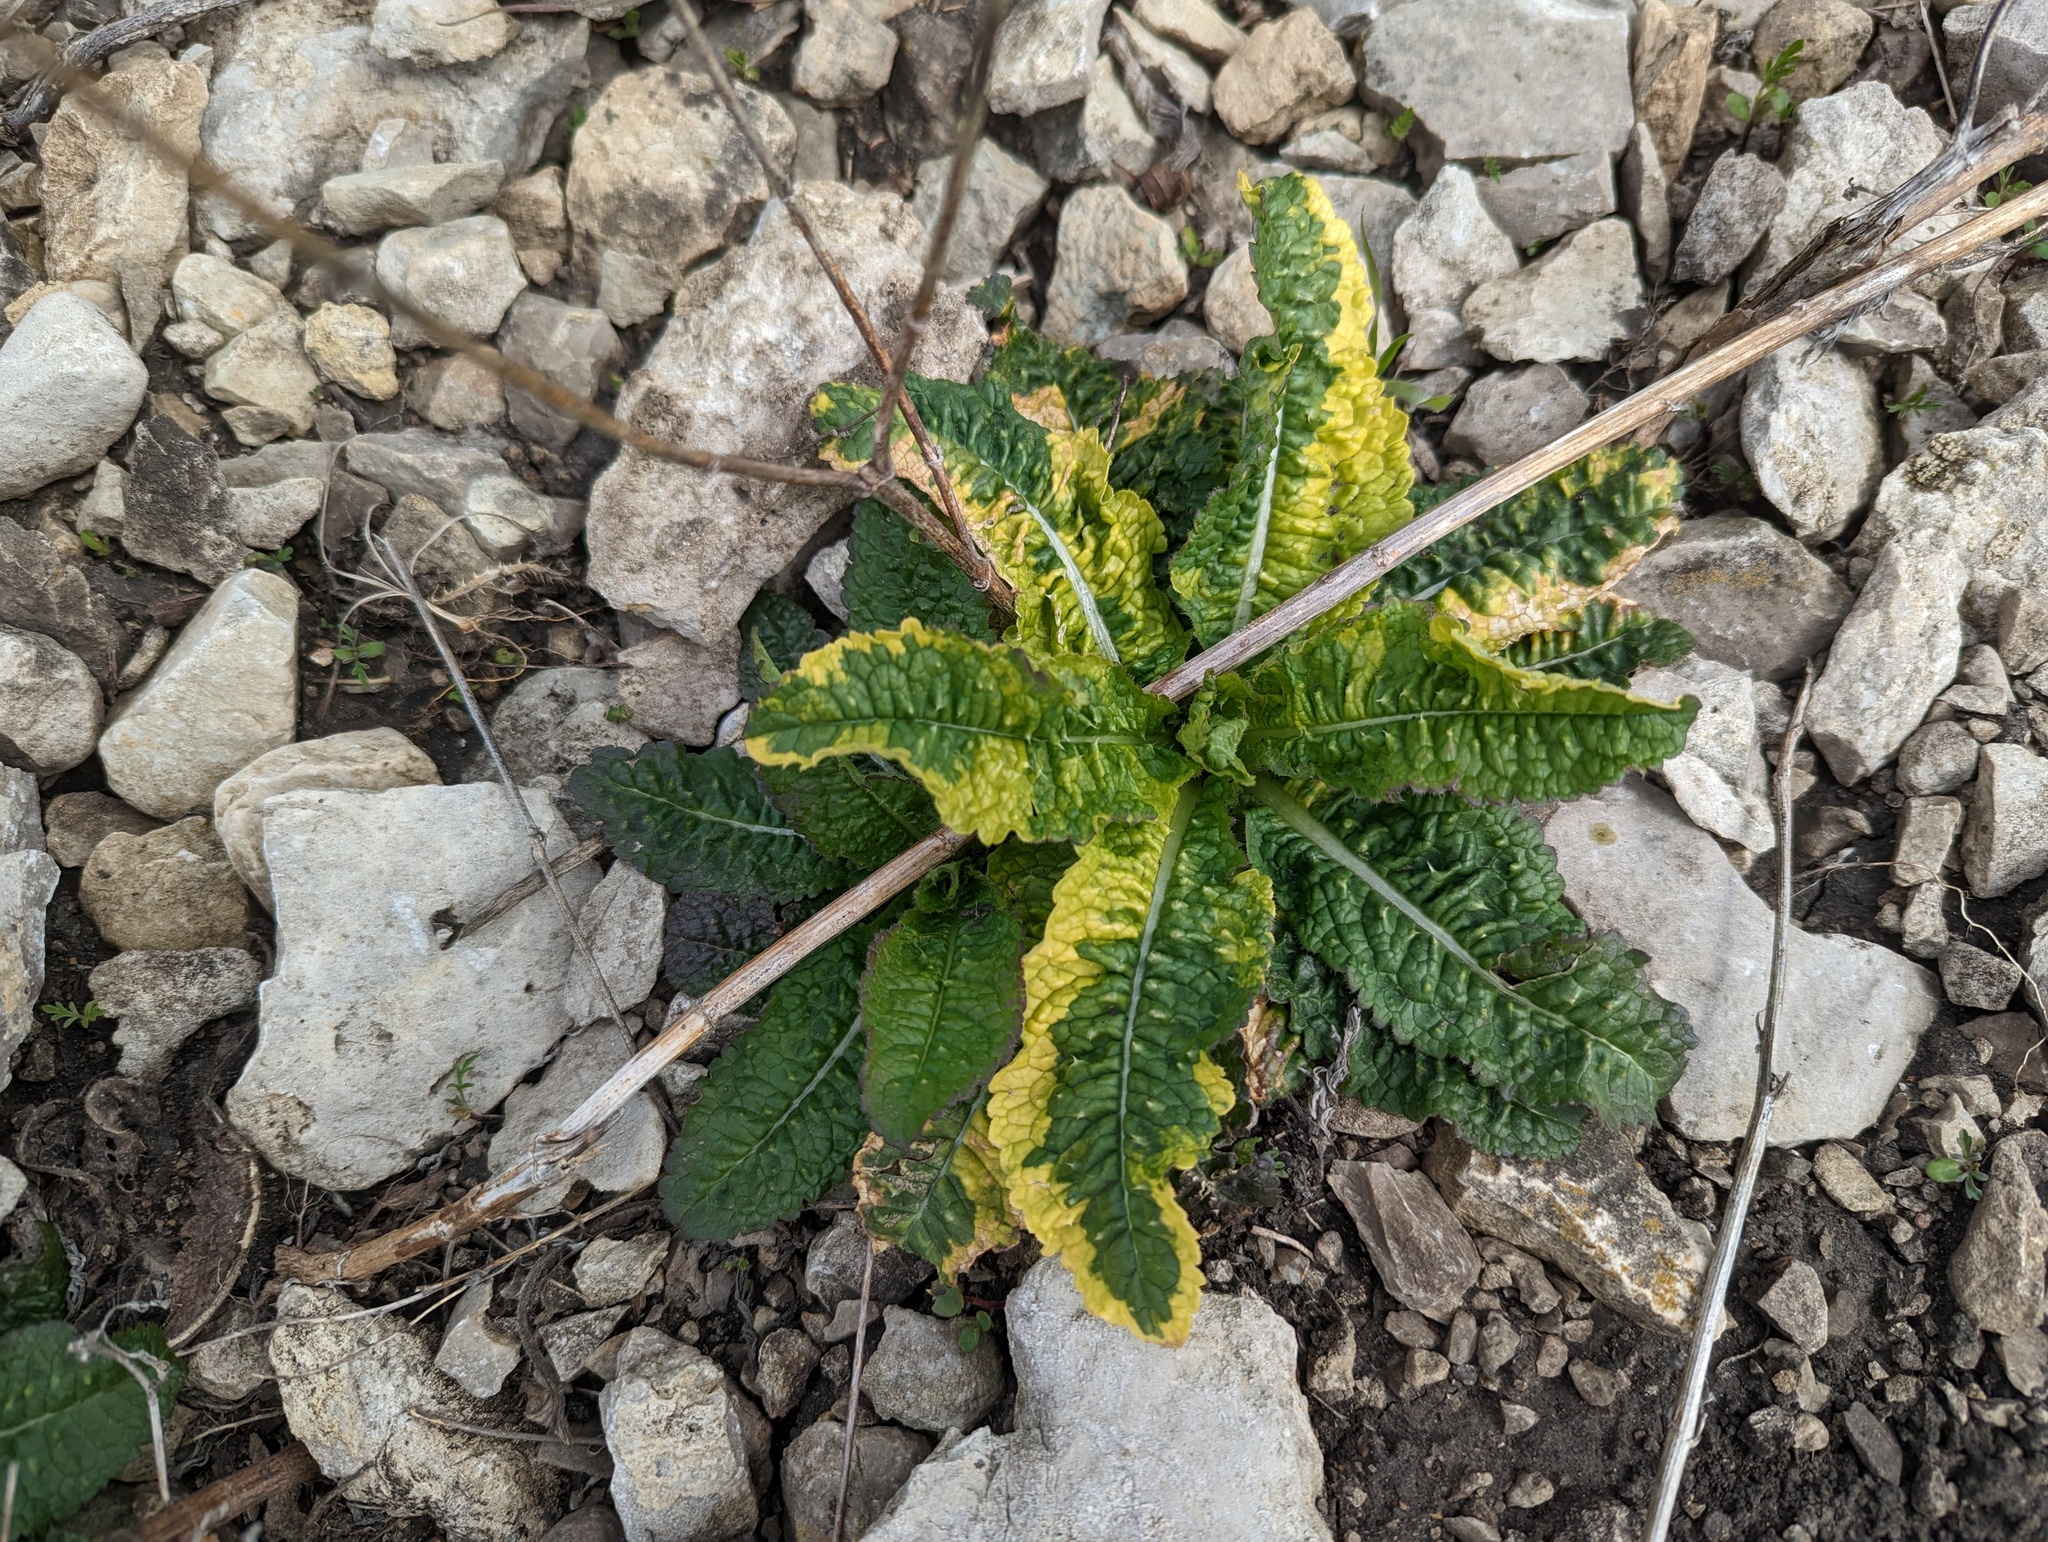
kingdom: Plantae
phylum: Tracheophyta
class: Magnoliopsida
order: Dipsacales
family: Caprifoliaceae
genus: Dipsacus
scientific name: Dipsacus fullonum
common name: Teasel
